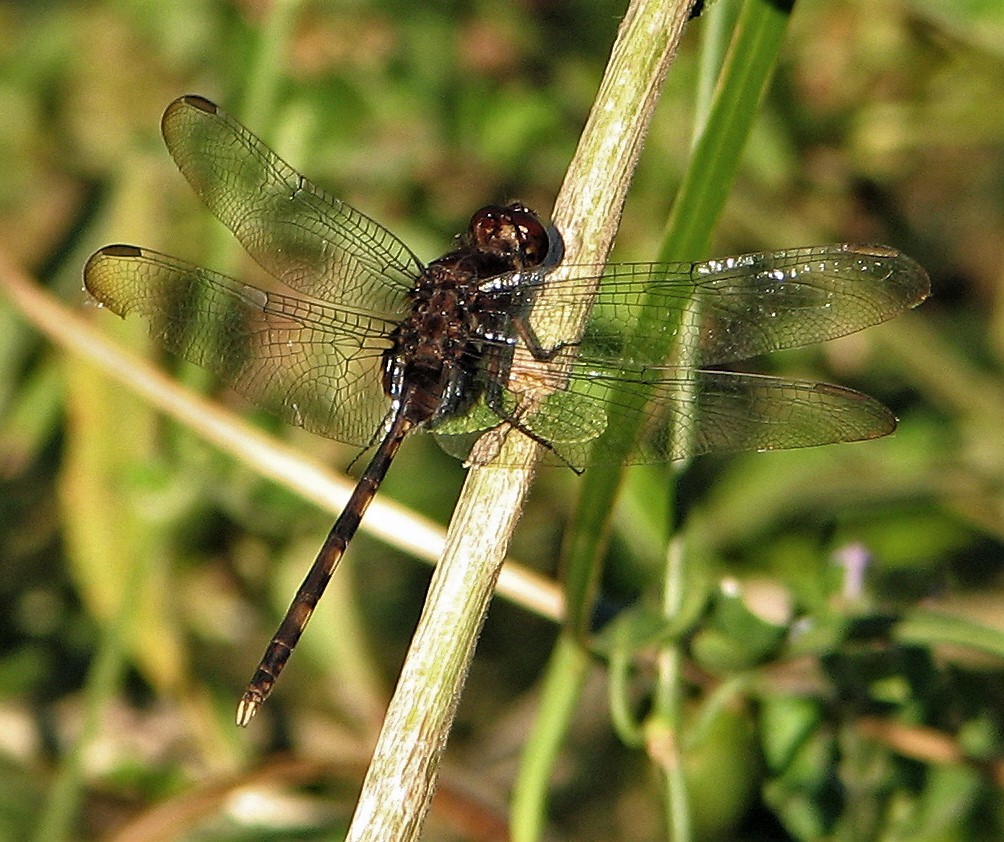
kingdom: Animalia
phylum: Arthropoda
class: Insecta
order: Odonata
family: Libellulidae
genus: Erythemis
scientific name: Erythemis plebeja
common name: Pin-tailed pondhawk
